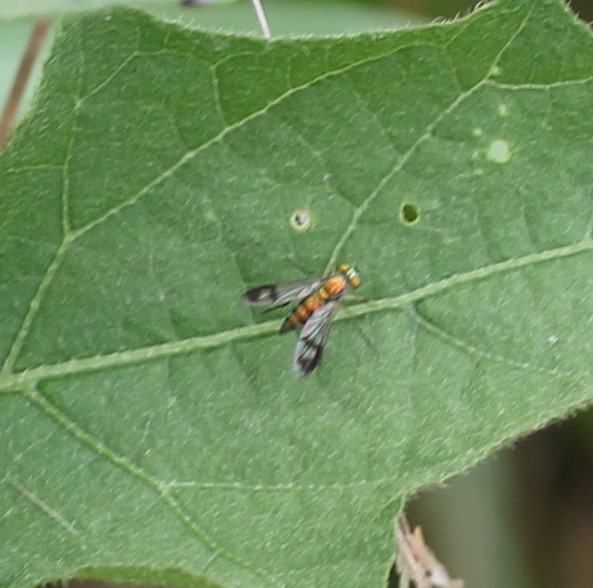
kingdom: Animalia
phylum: Arthropoda
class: Insecta
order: Diptera
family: Dolichopodidae
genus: Condylostylus
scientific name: Condylostylus
